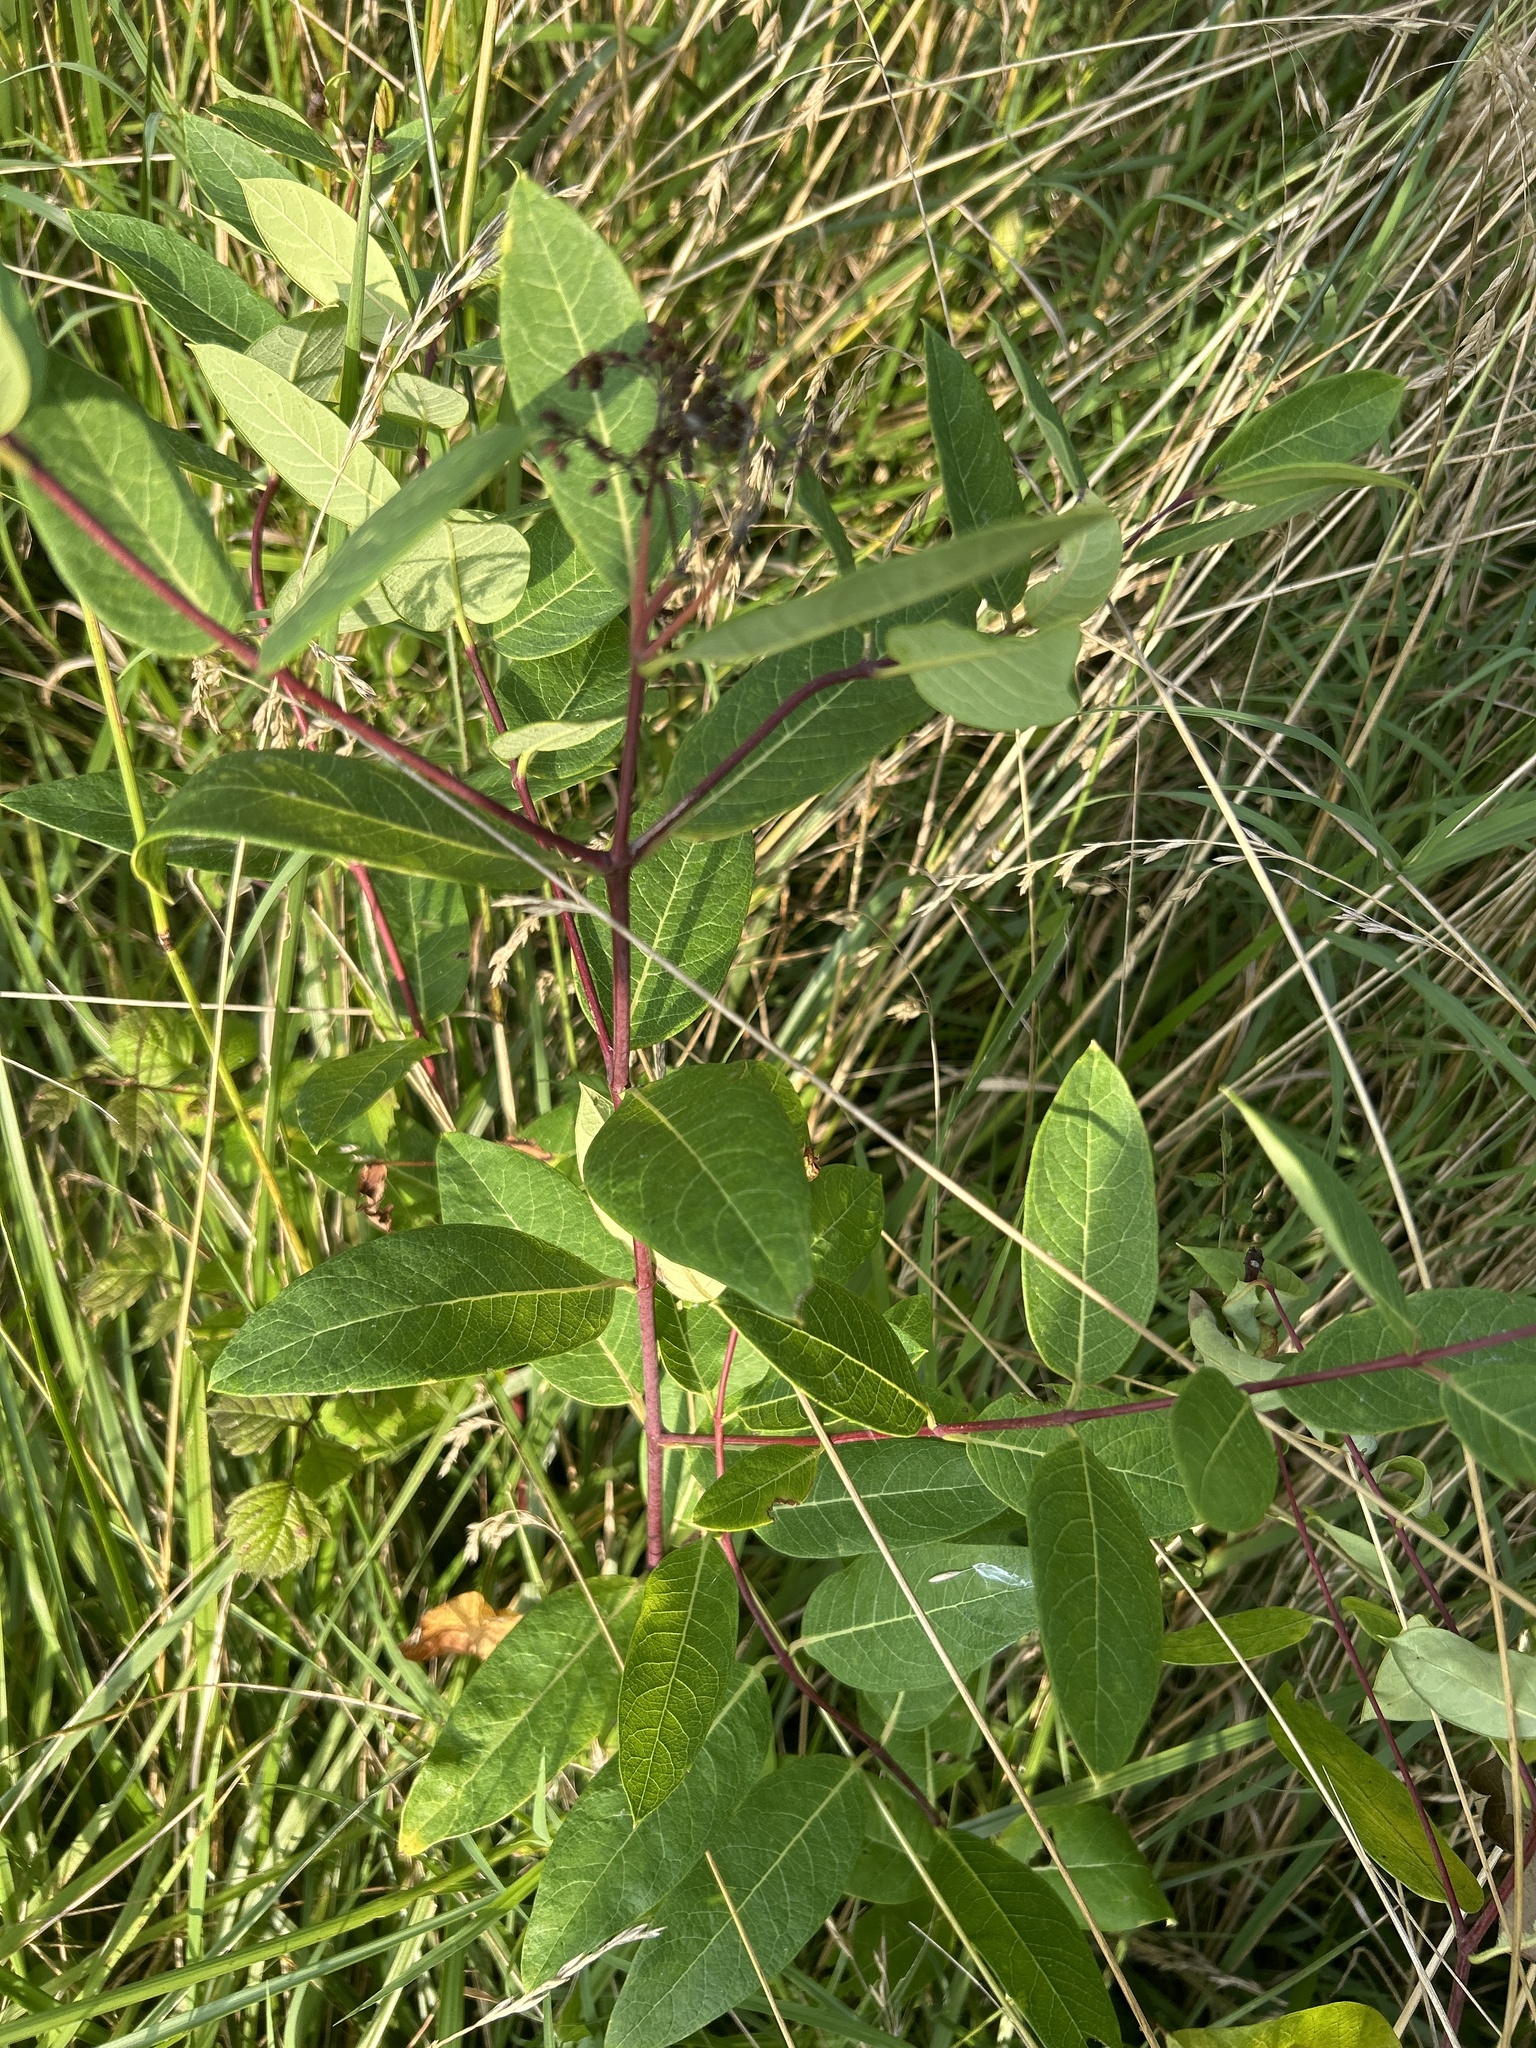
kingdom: Plantae
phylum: Tracheophyta
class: Magnoliopsida
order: Gentianales
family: Apocynaceae
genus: Apocynum
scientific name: Apocynum cannabinum
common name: Hemp dogbane
